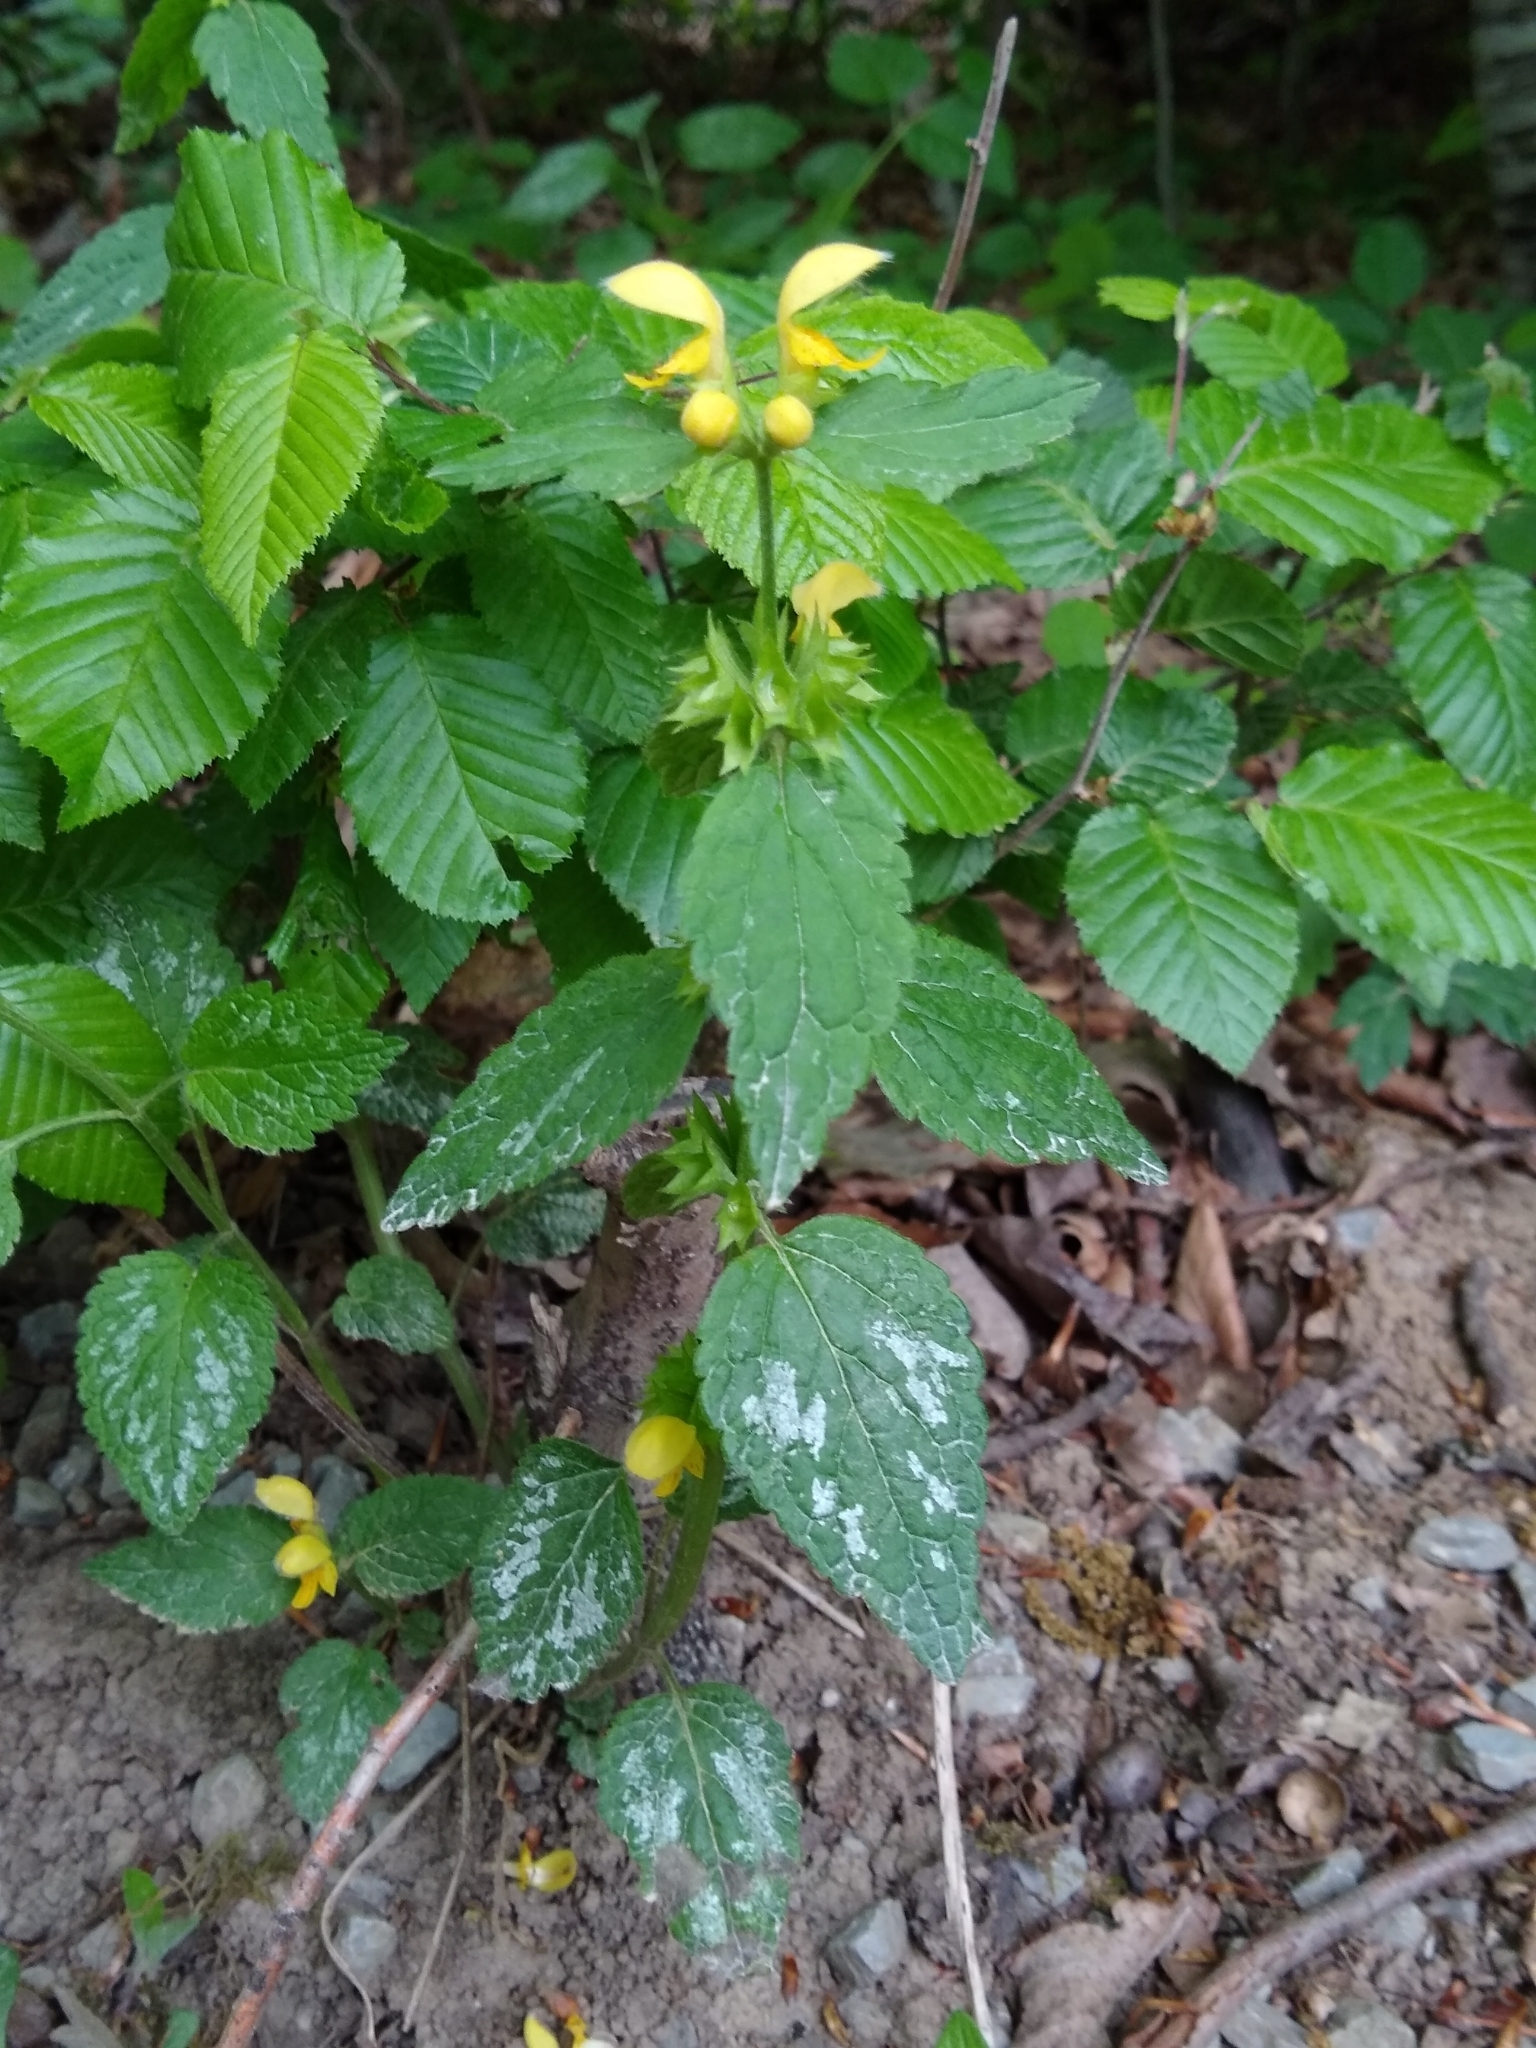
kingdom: Plantae
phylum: Tracheophyta
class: Magnoliopsida
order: Lamiales
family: Lamiaceae
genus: Lamium
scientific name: Lamium galeobdolon
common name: Yellow archangel
